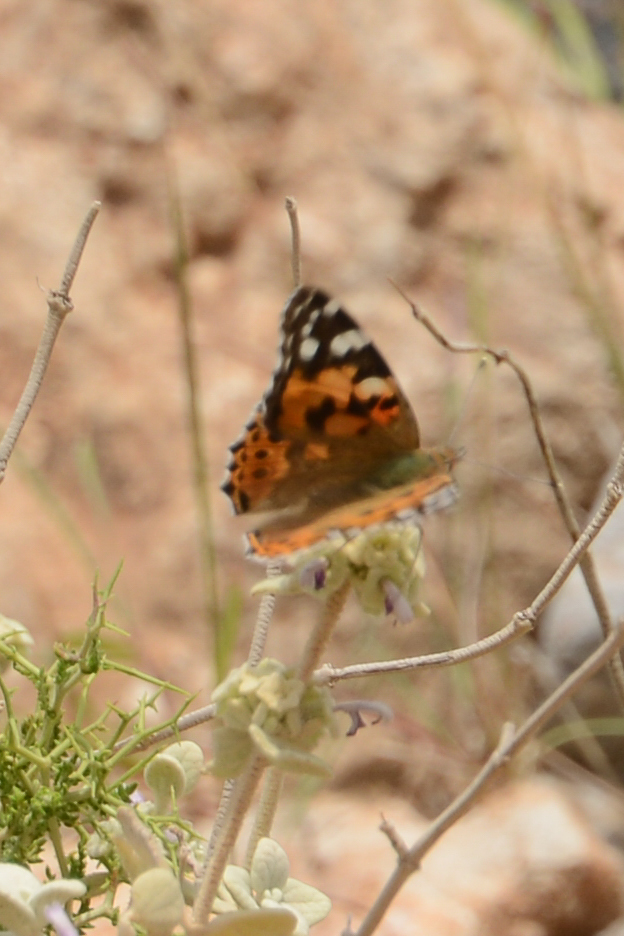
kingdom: Animalia
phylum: Arthropoda
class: Insecta
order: Lepidoptera
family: Nymphalidae
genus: Vanessa
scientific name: Vanessa cardui
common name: Painted lady
